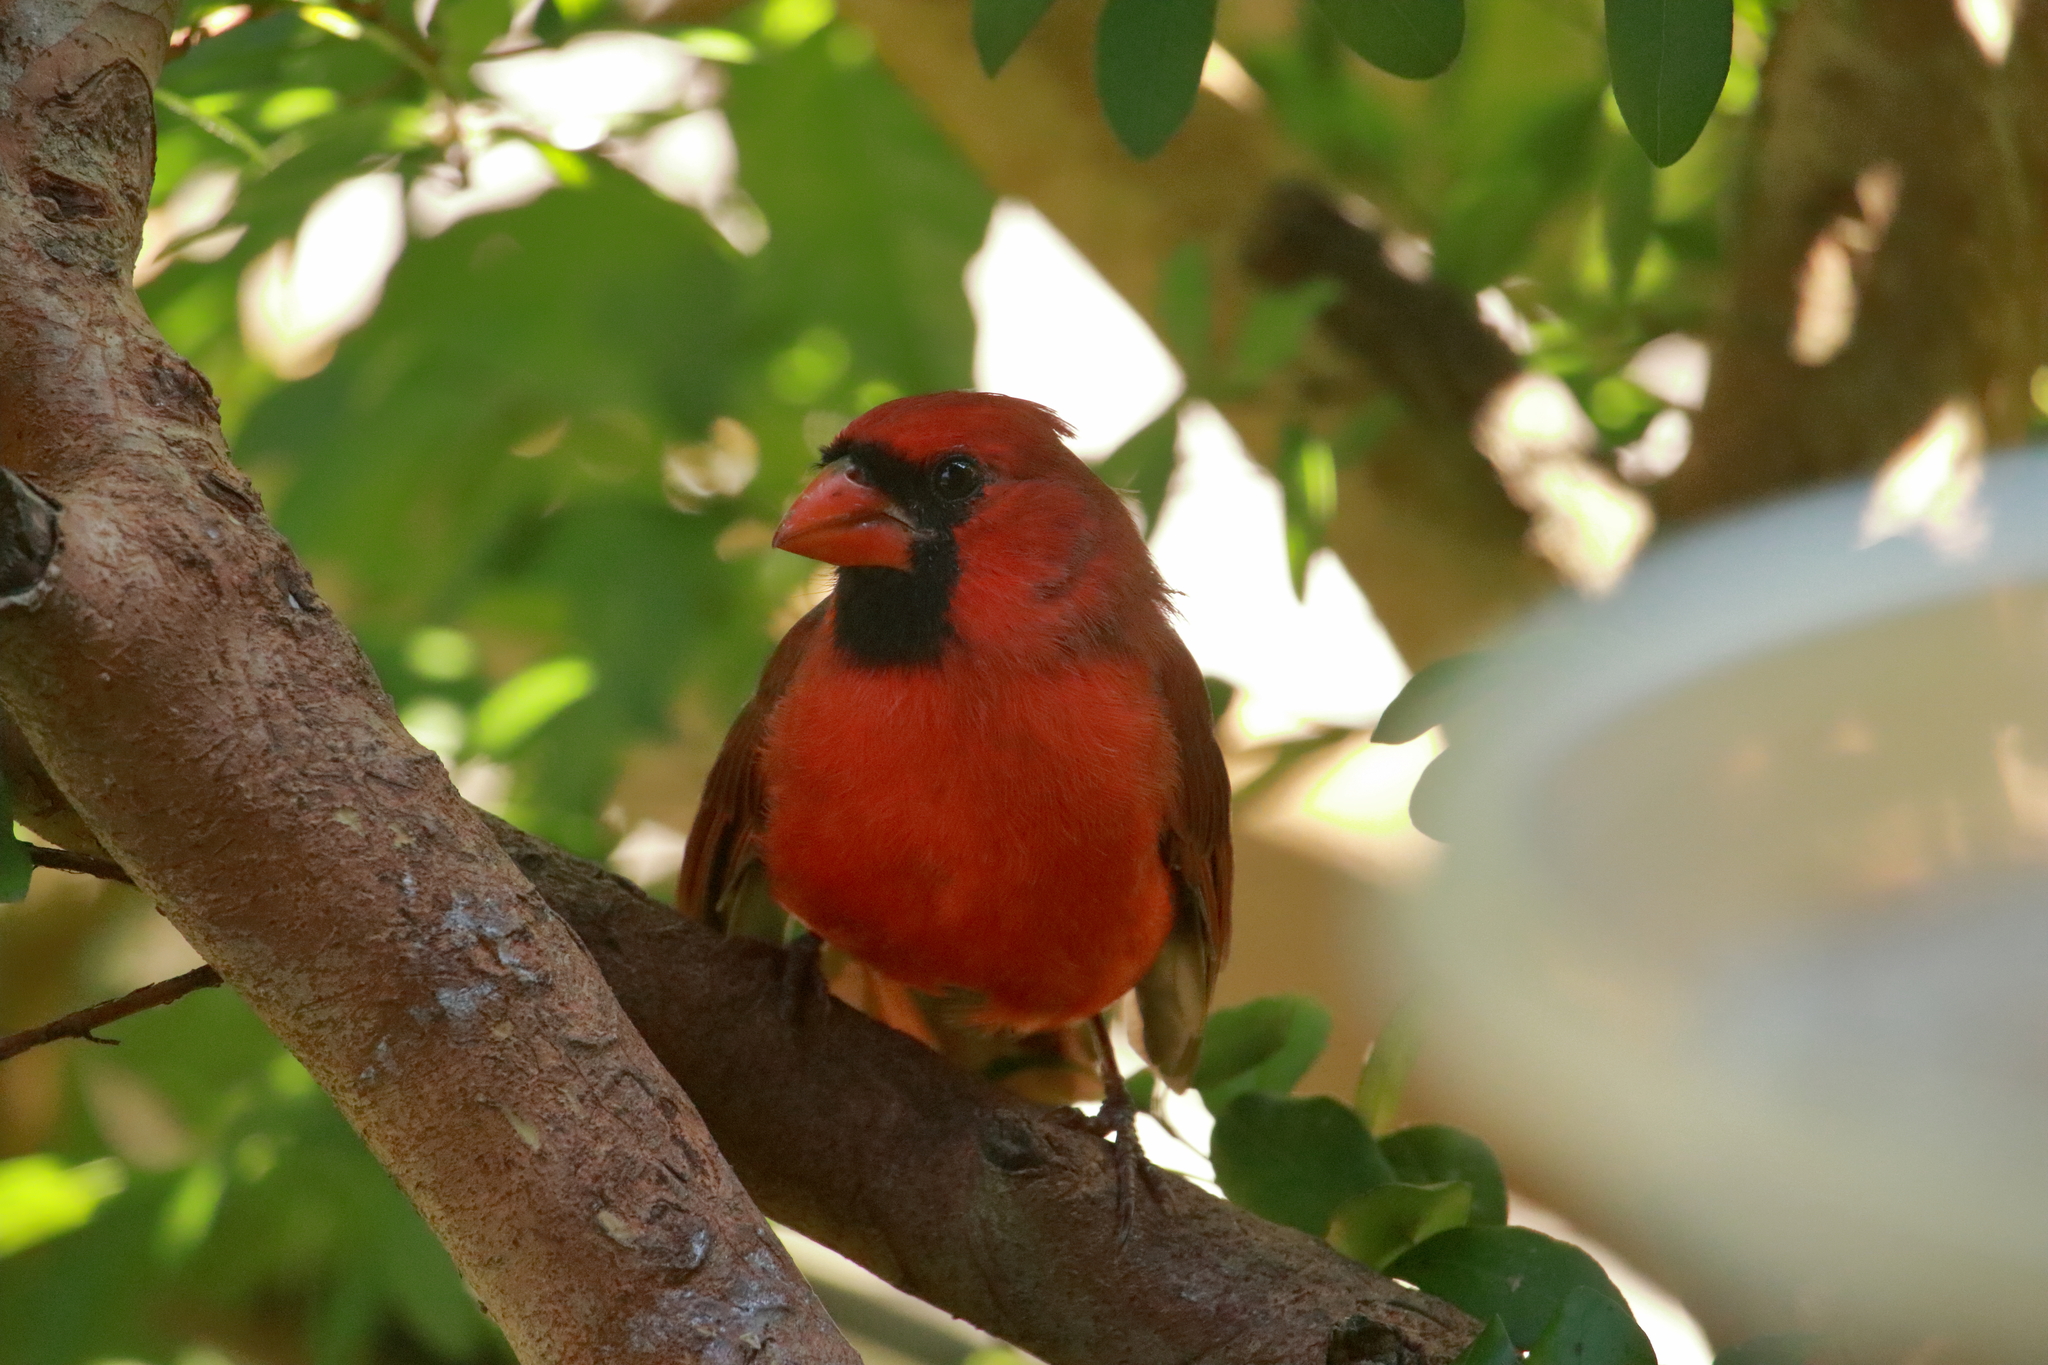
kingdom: Animalia
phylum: Chordata
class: Aves
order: Passeriformes
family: Cardinalidae
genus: Cardinalis
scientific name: Cardinalis cardinalis
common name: Northern cardinal
